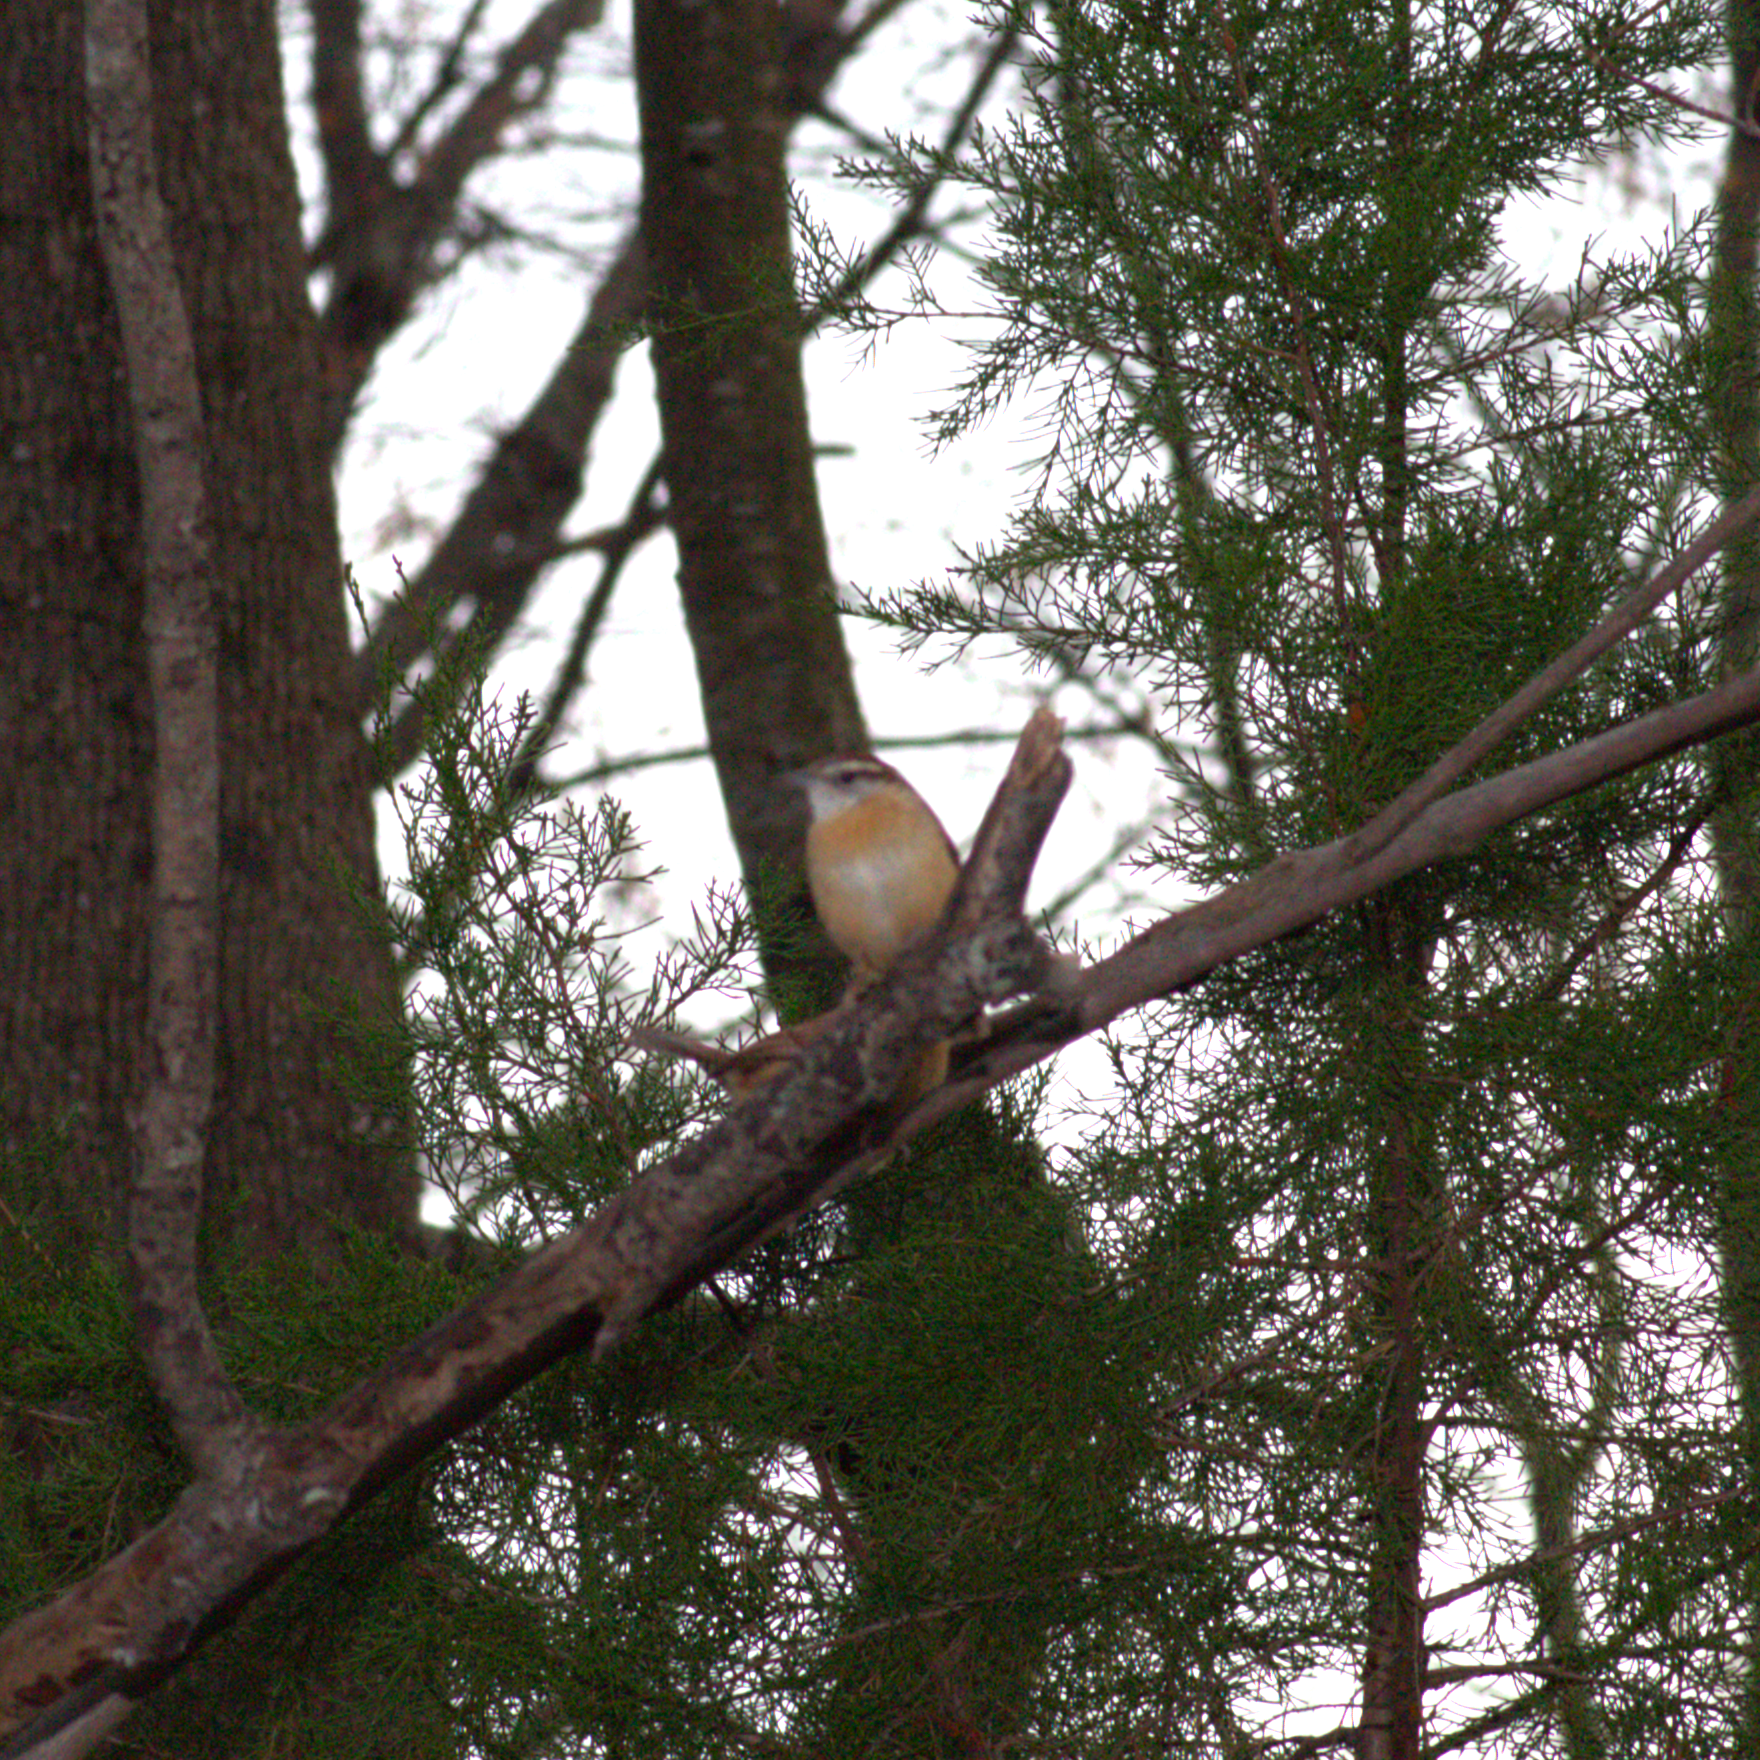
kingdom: Animalia
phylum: Chordata
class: Aves
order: Passeriformes
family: Troglodytidae
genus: Thryothorus
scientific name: Thryothorus ludovicianus
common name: Carolina wren
